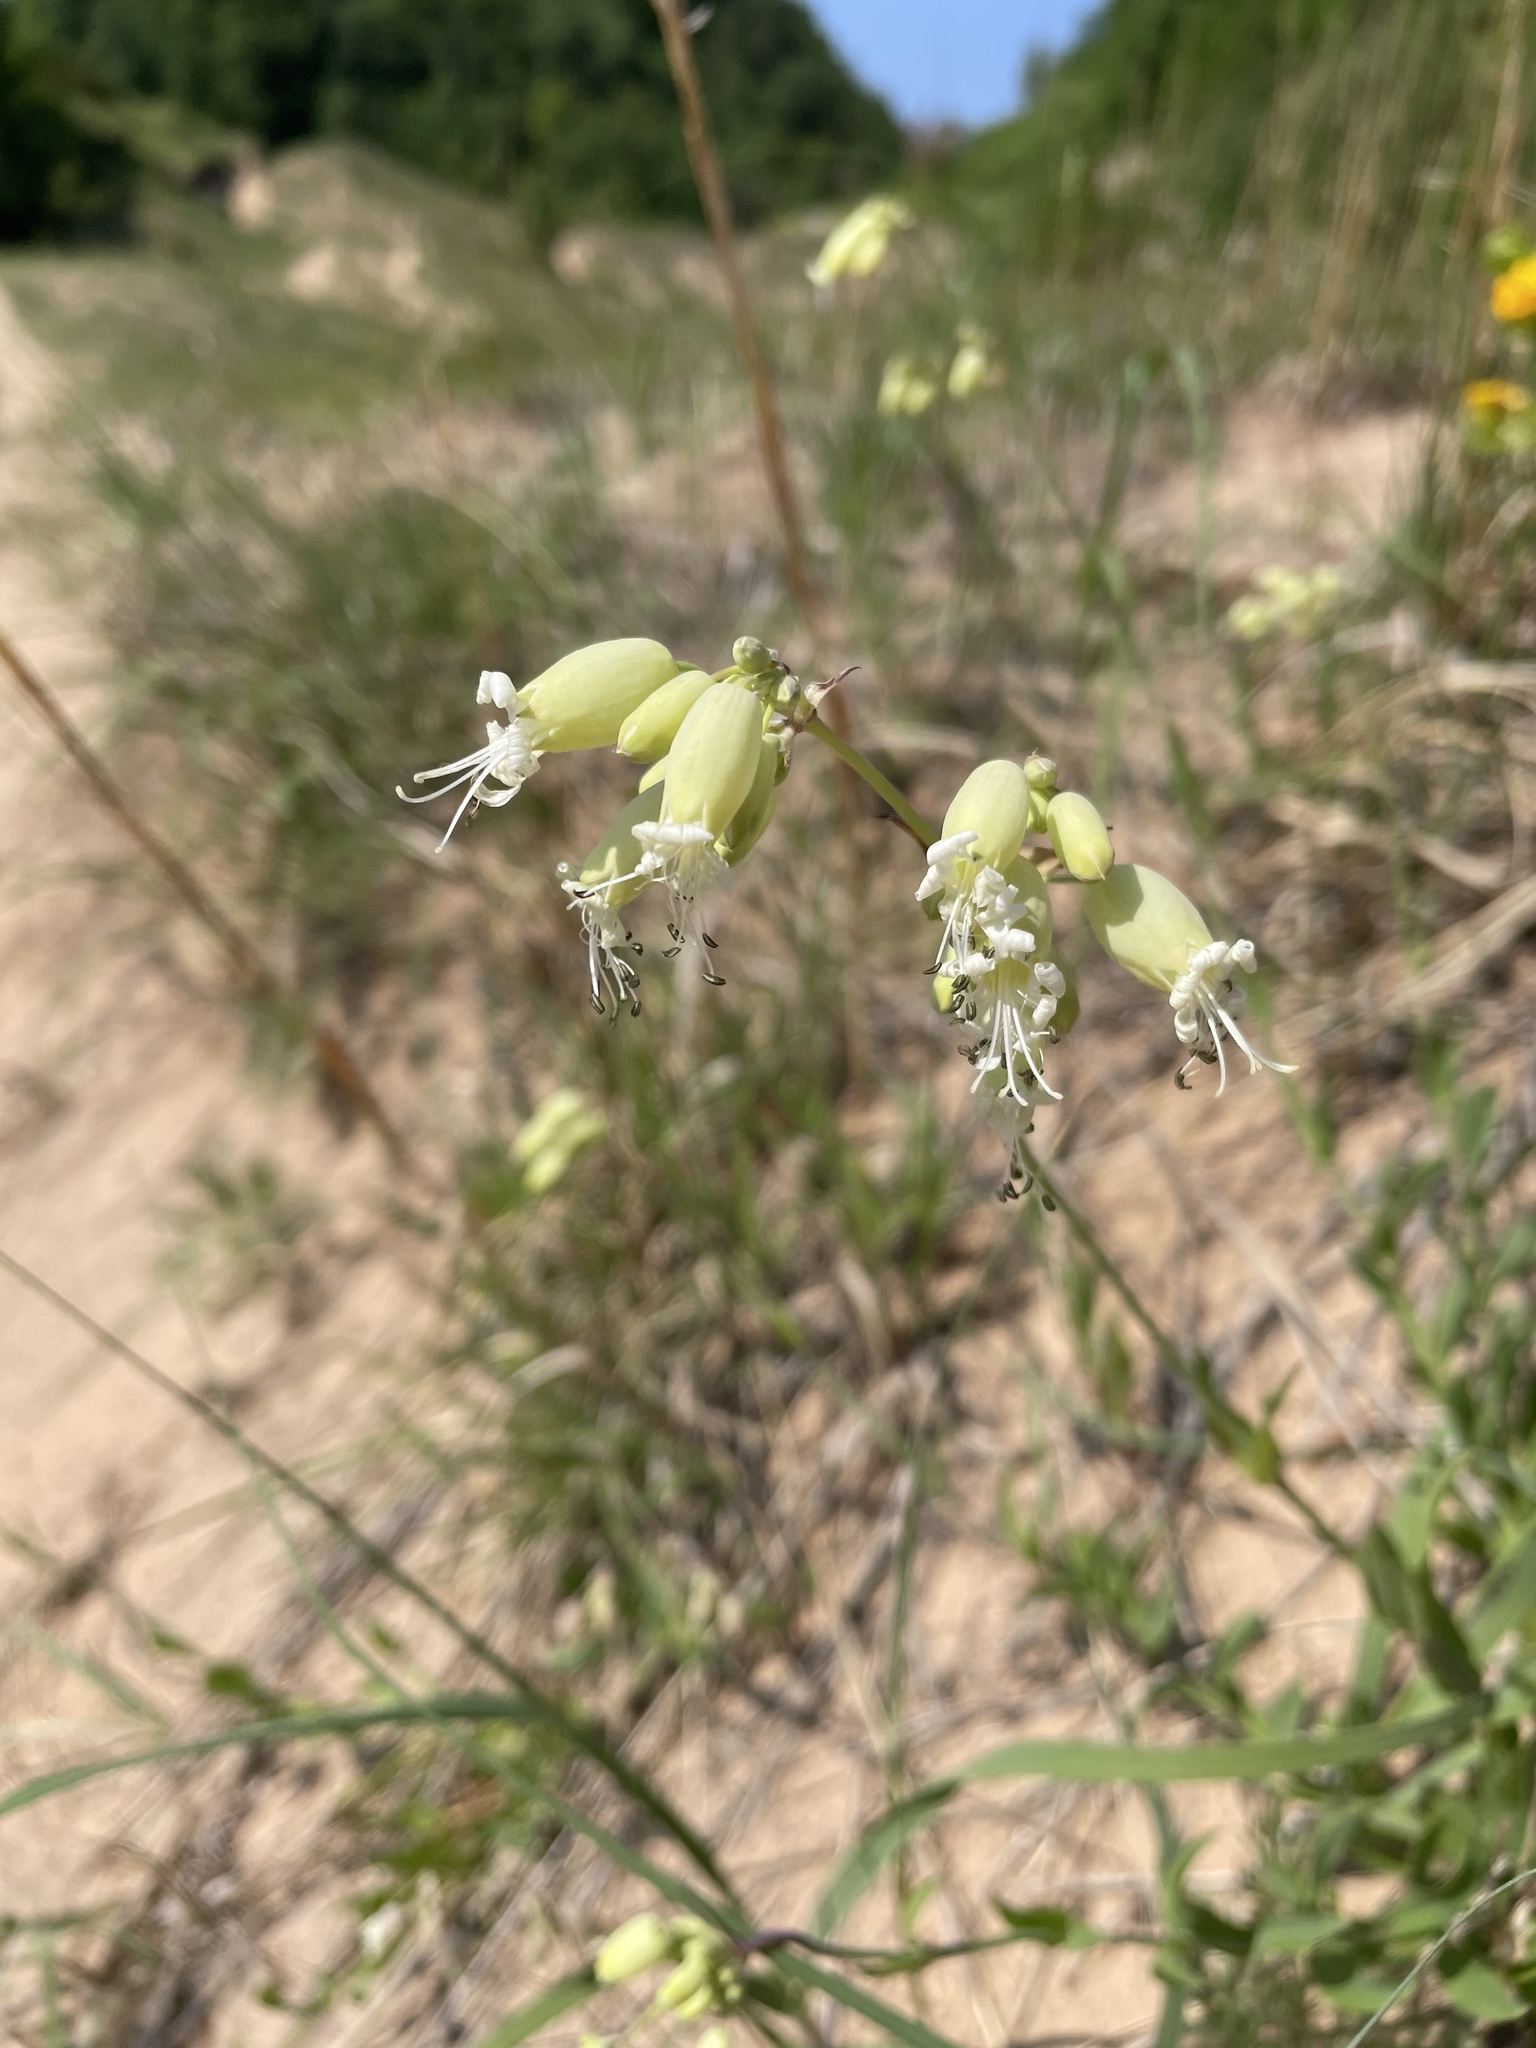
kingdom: Plantae
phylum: Tracheophyta
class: Magnoliopsida
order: Caryophyllales
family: Caryophyllaceae
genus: Silene
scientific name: Silene vulgaris
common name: Bladder campion
